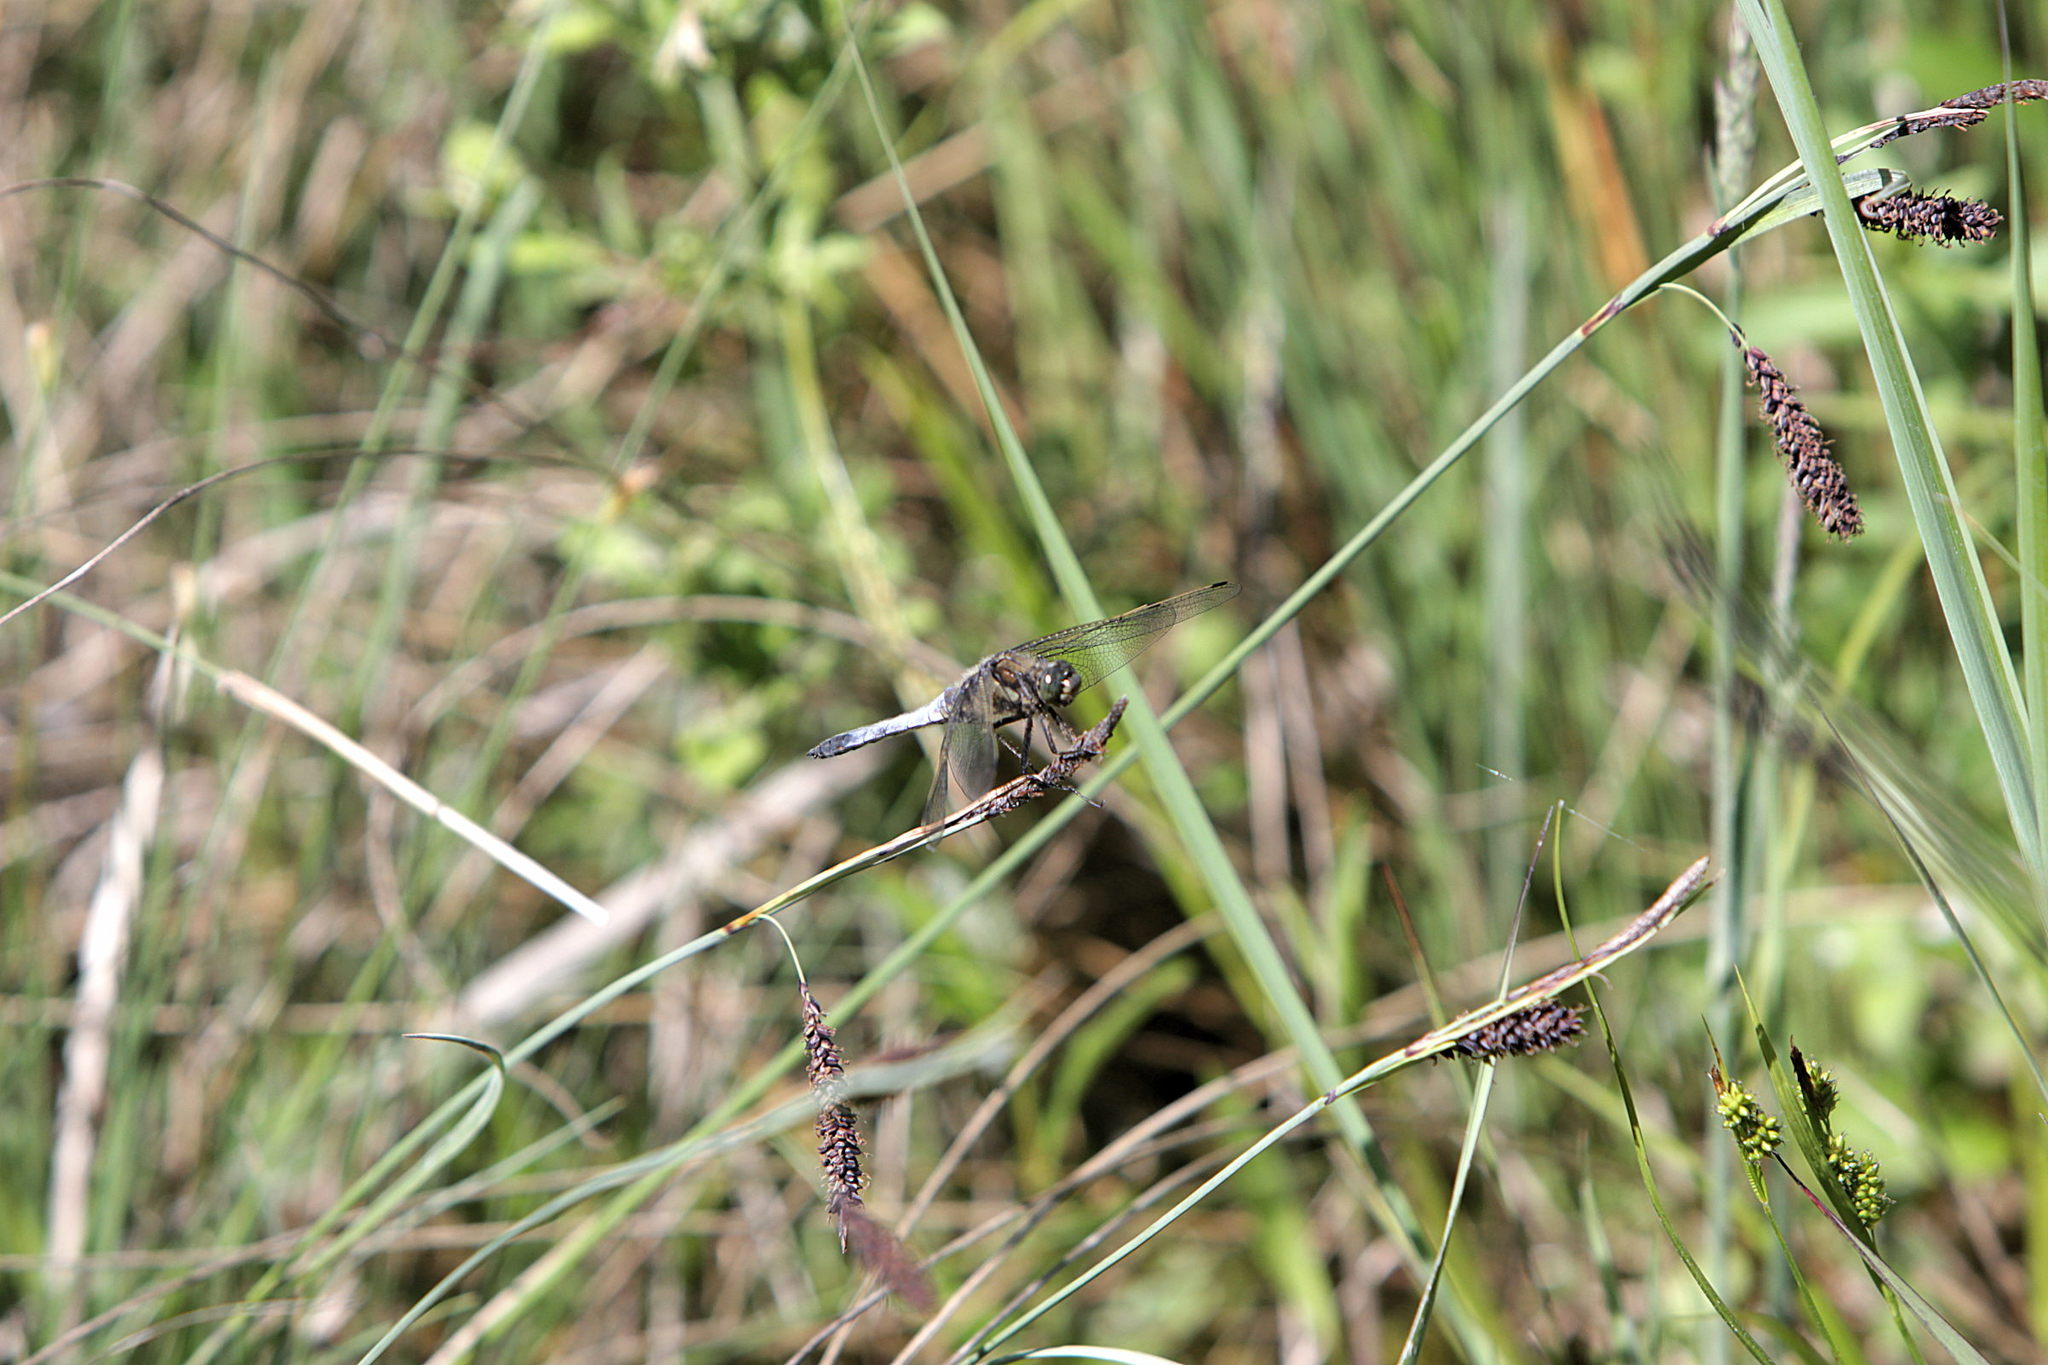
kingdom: Animalia
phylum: Arthropoda
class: Insecta
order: Odonata
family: Libellulidae
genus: Orthetrum
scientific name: Orthetrum cancellatum
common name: Black-tailed skimmer
